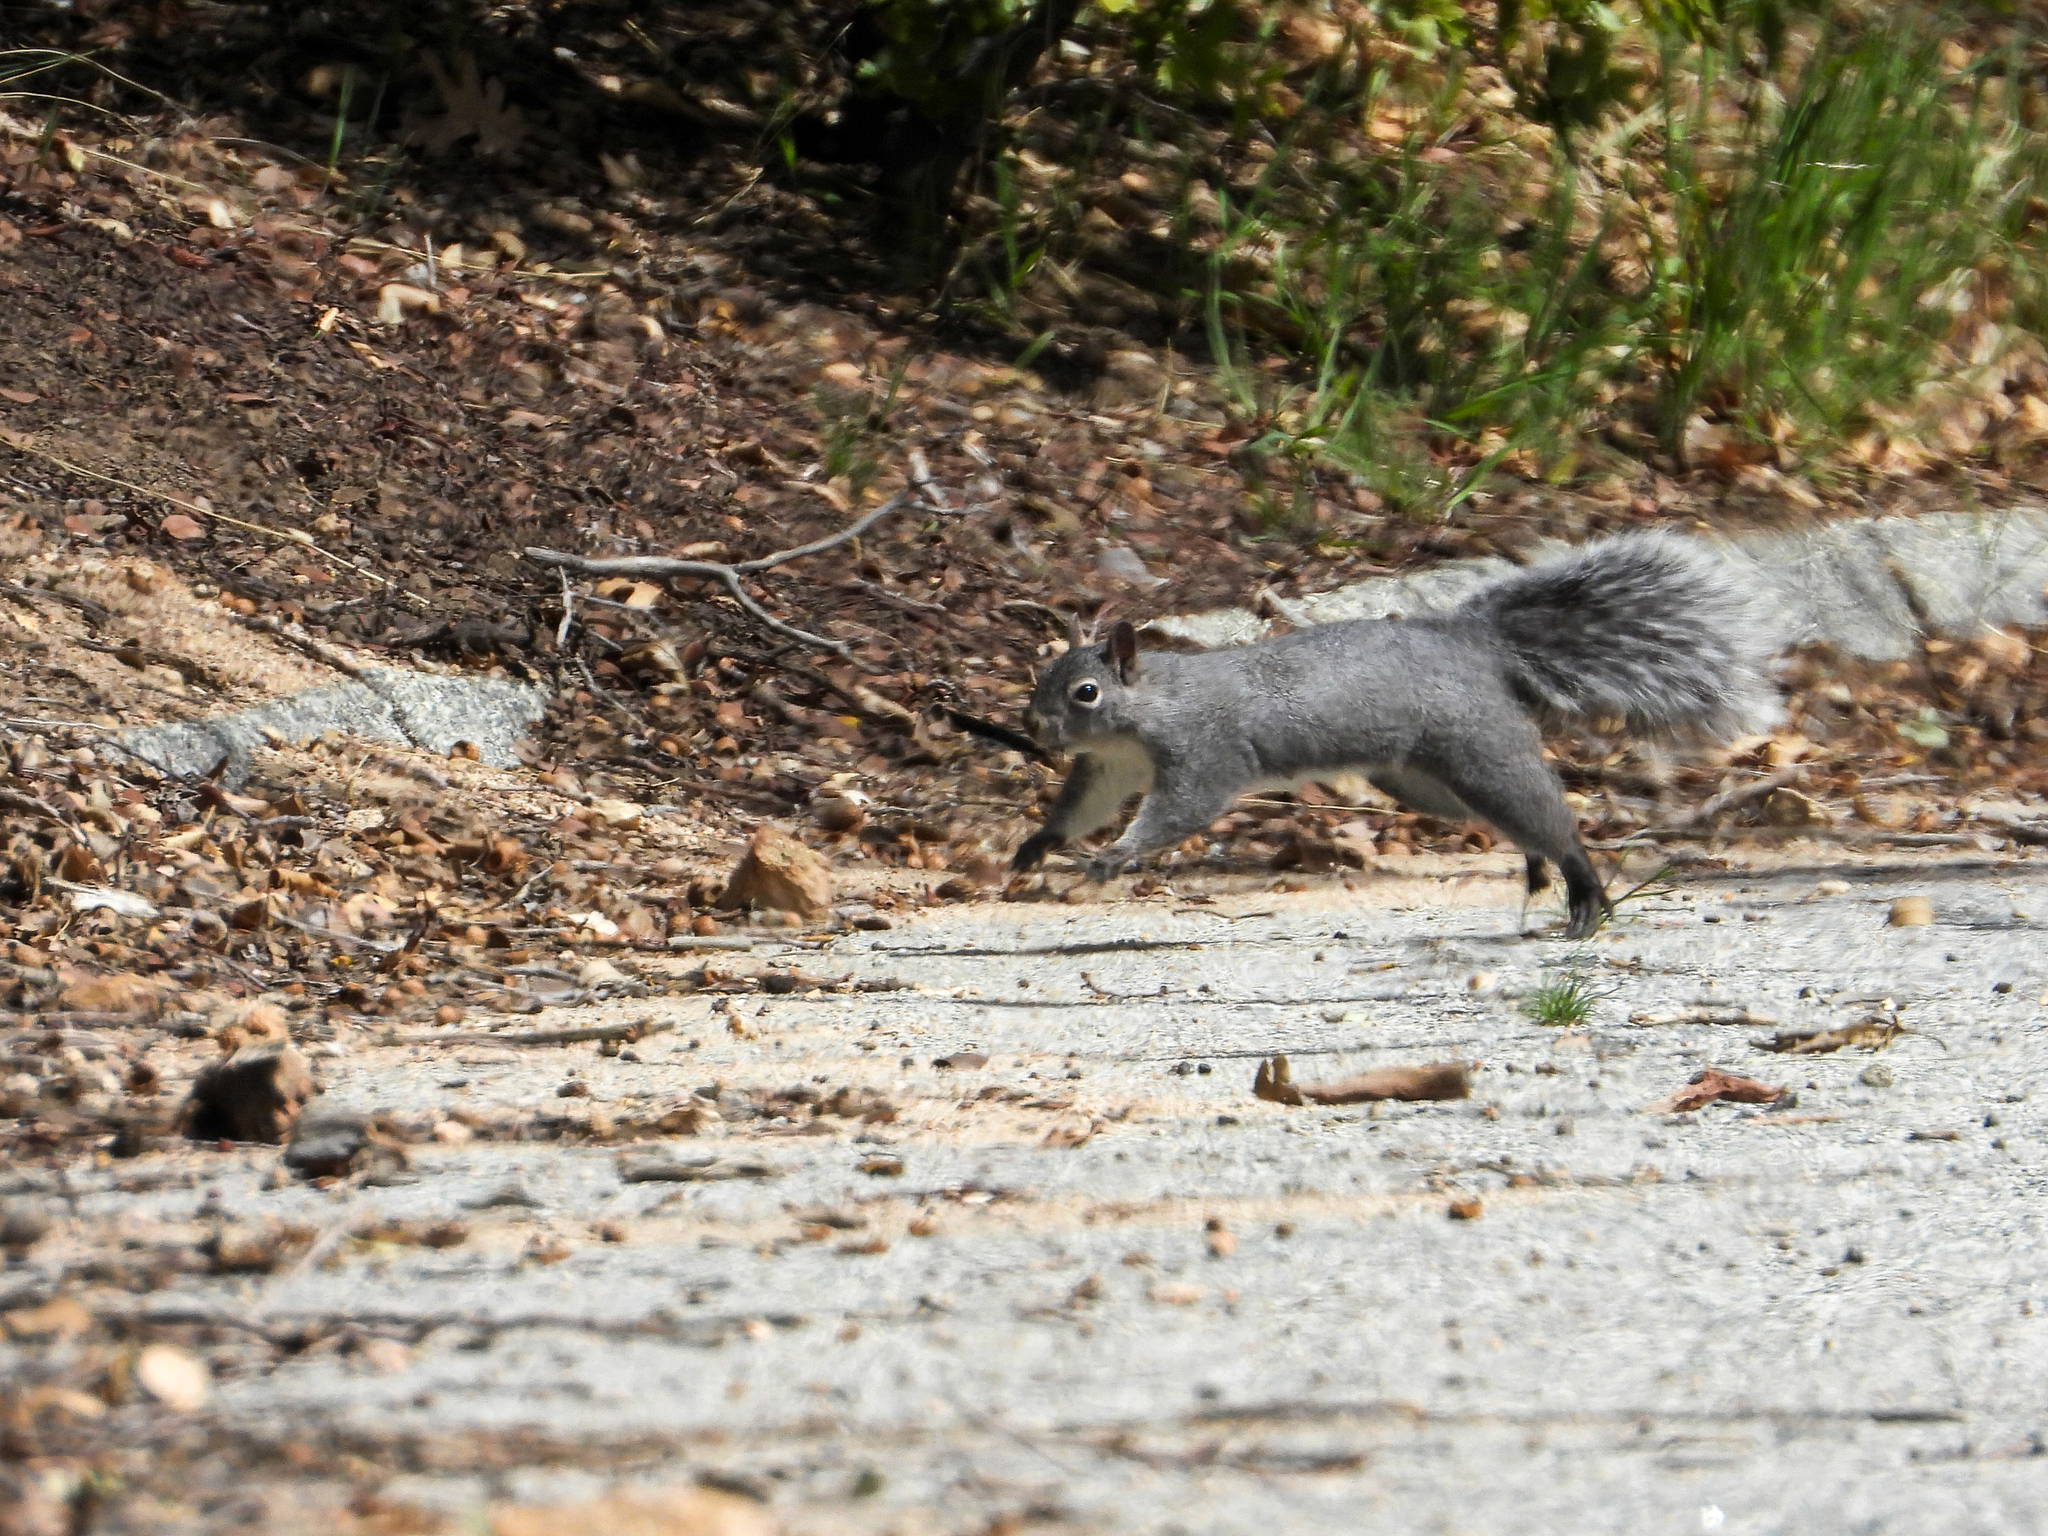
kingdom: Animalia
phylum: Chordata
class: Mammalia
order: Rodentia
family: Sciuridae
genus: Sciurus
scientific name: Sciurus griseus
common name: Western gray squirrel
